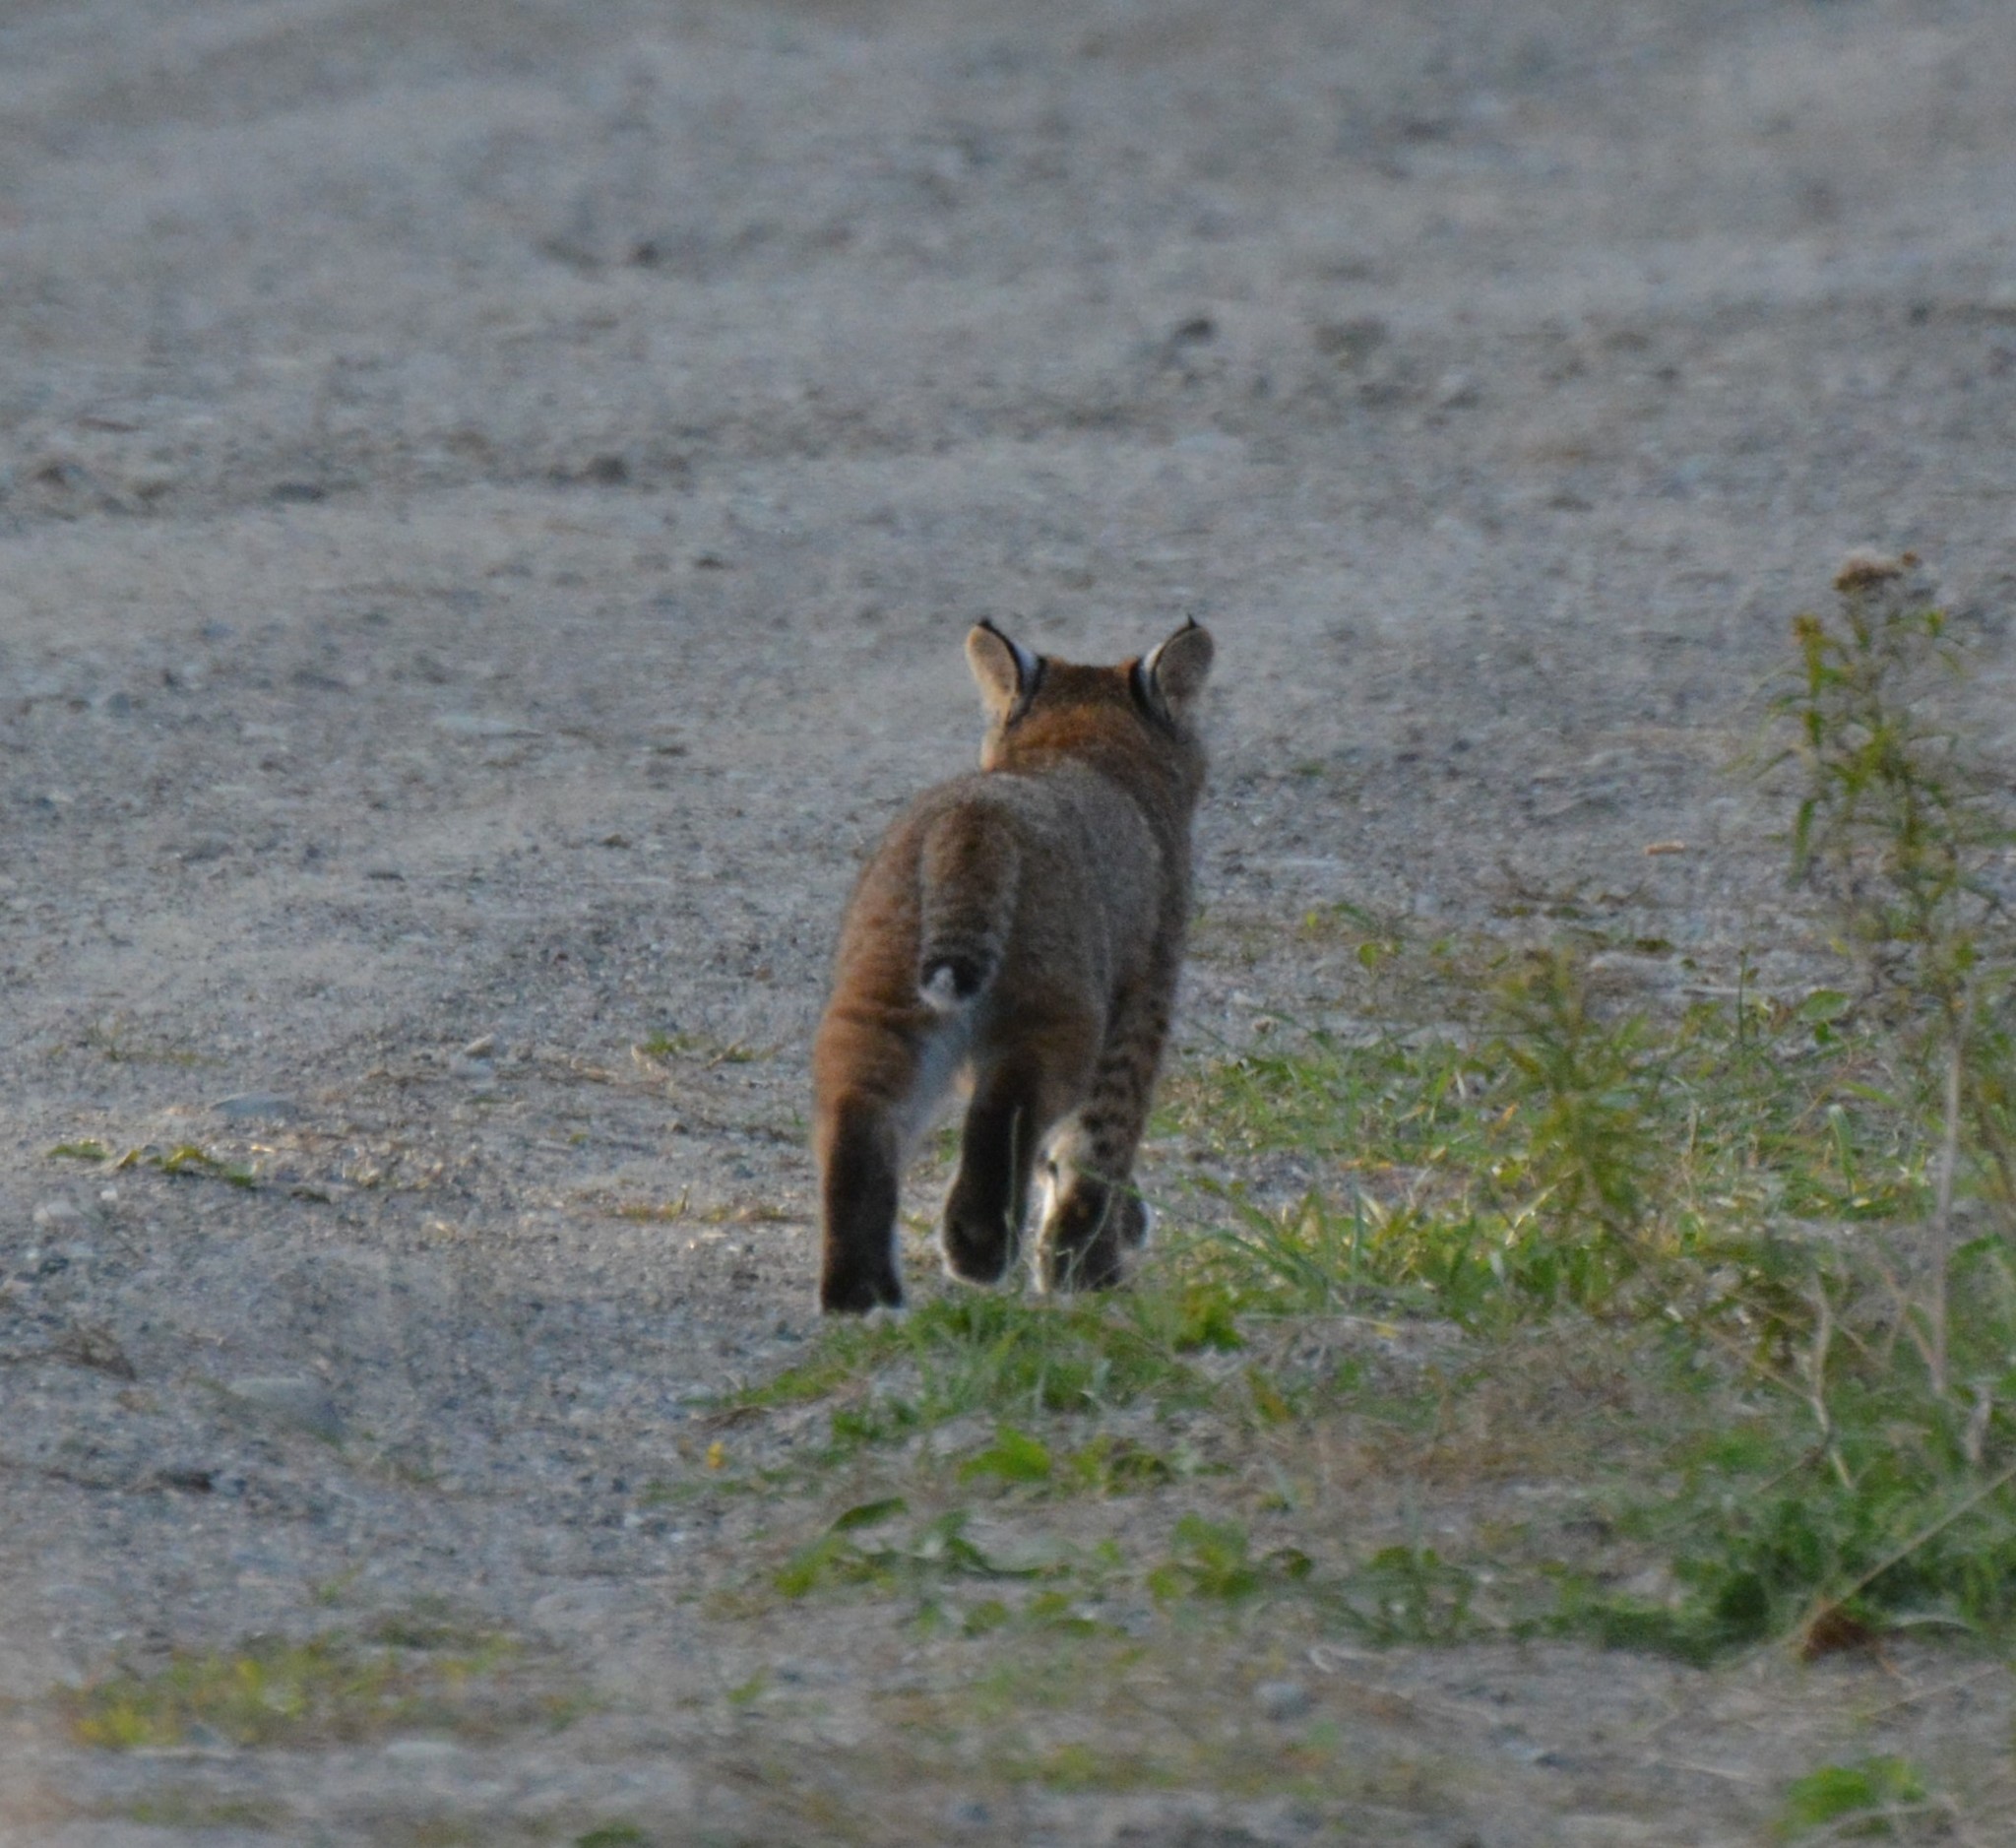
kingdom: Animalia
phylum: Chordata
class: Mammalia
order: Carnivora
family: Felidae
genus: Lynx
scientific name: Lynx rufus
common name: Bobcat
